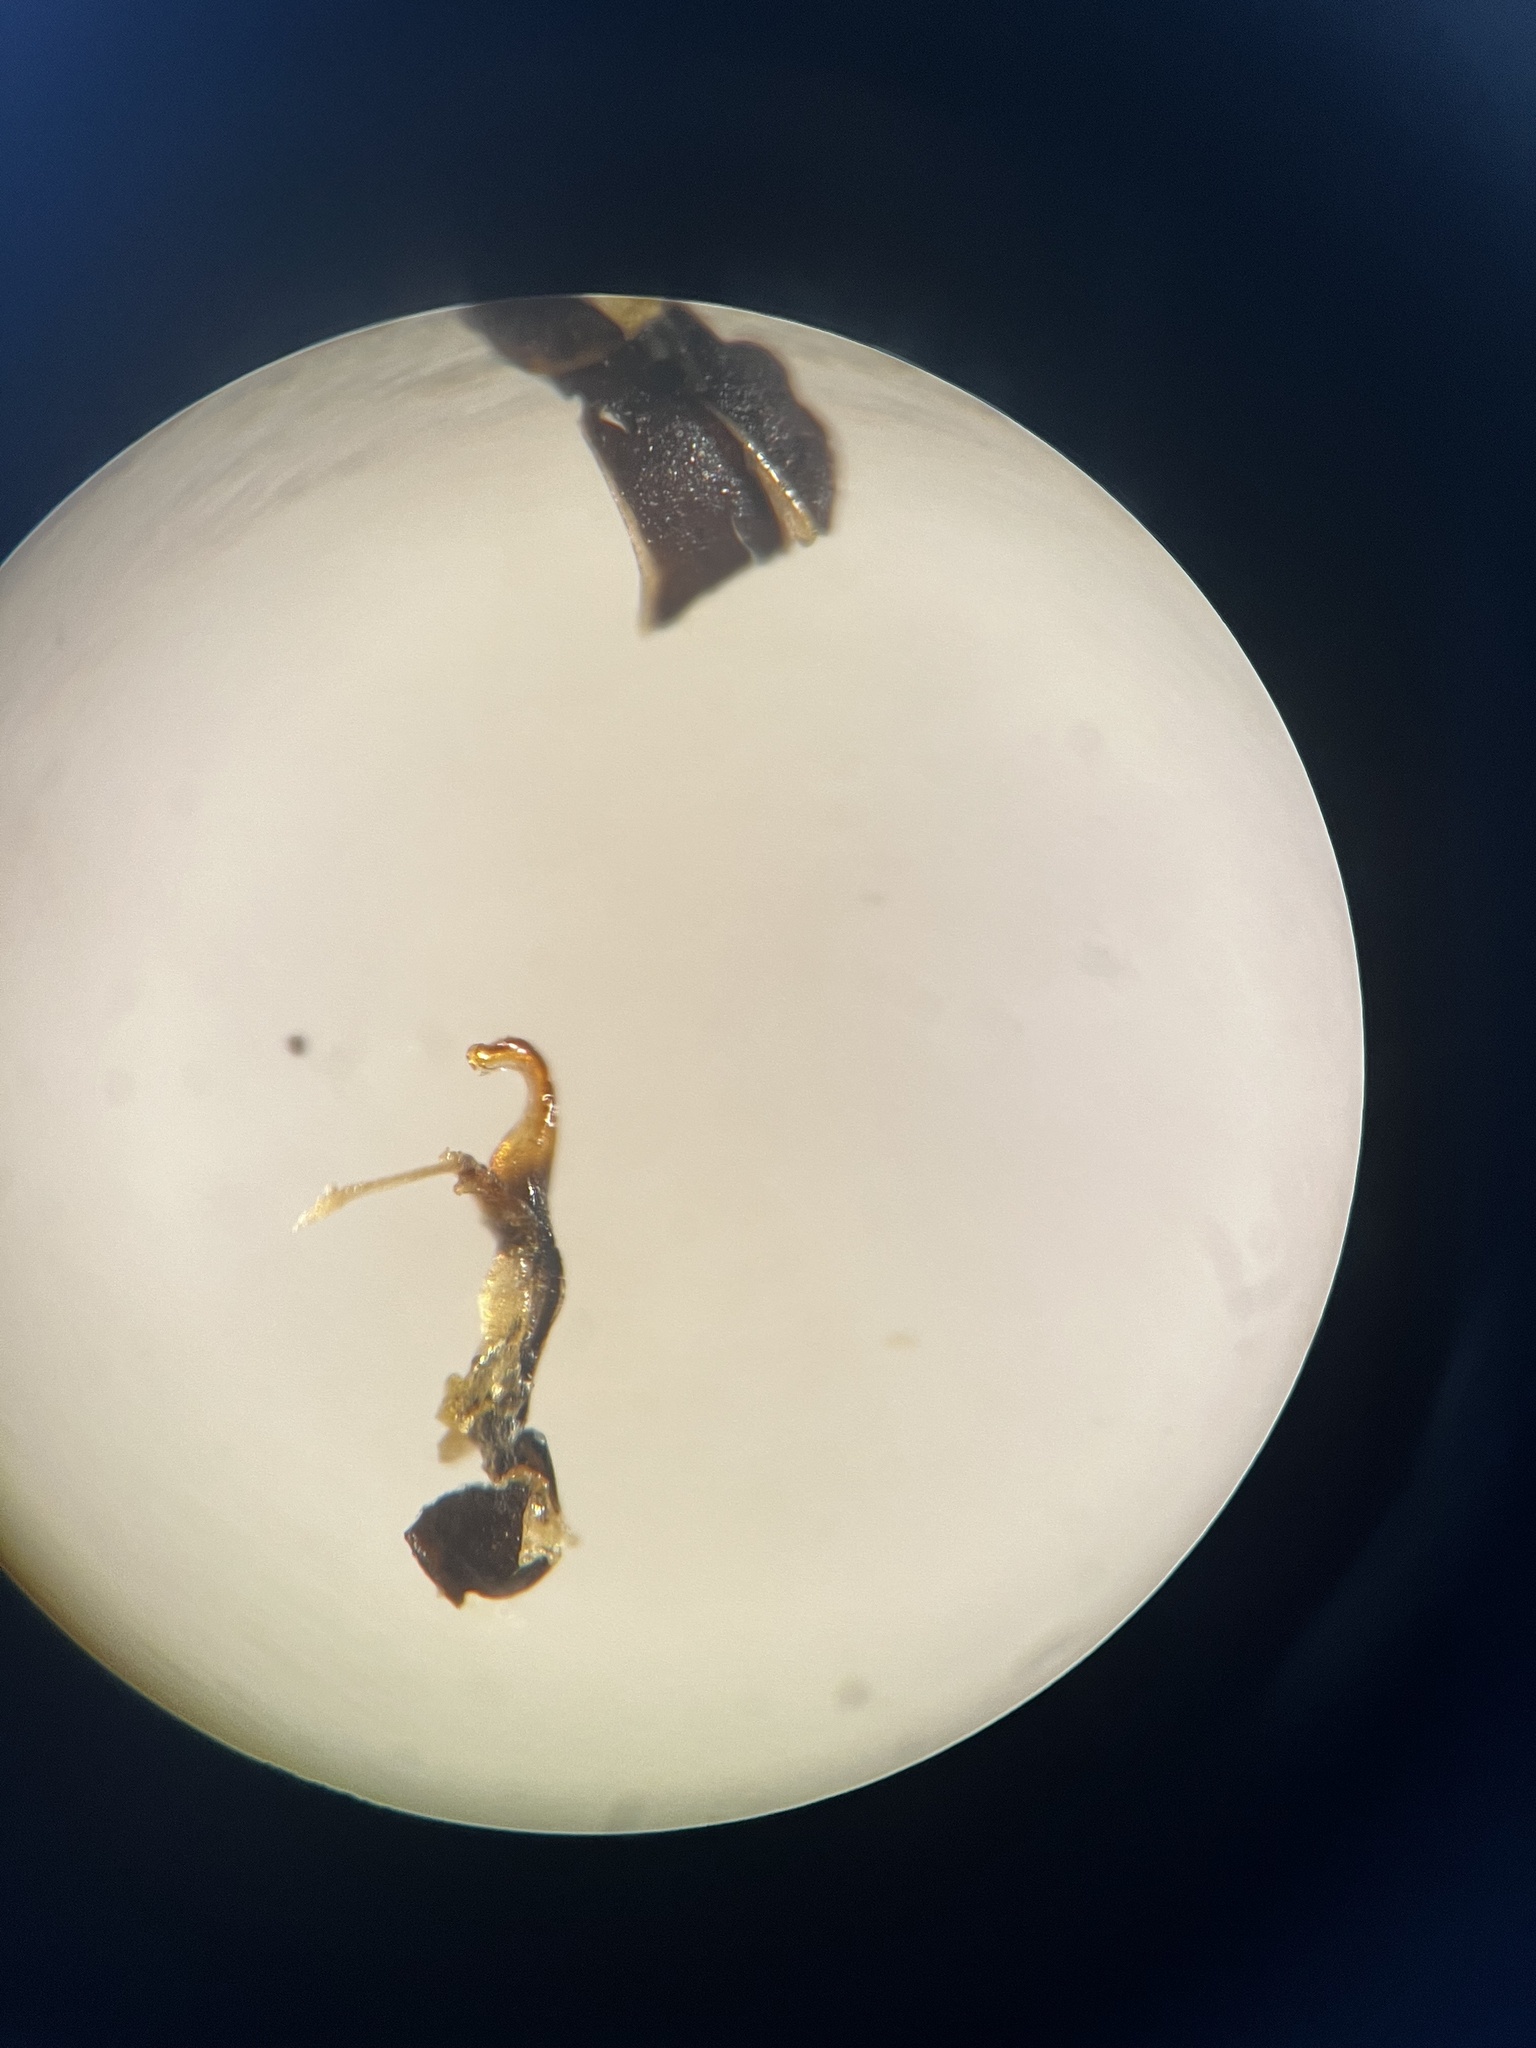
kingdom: Animalia
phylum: Arthropoda
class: Insecta
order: Hemiptera
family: Cicadellidae
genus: Deltocephalus
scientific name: Deltocephalus pulicaris
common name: Leafhopper
